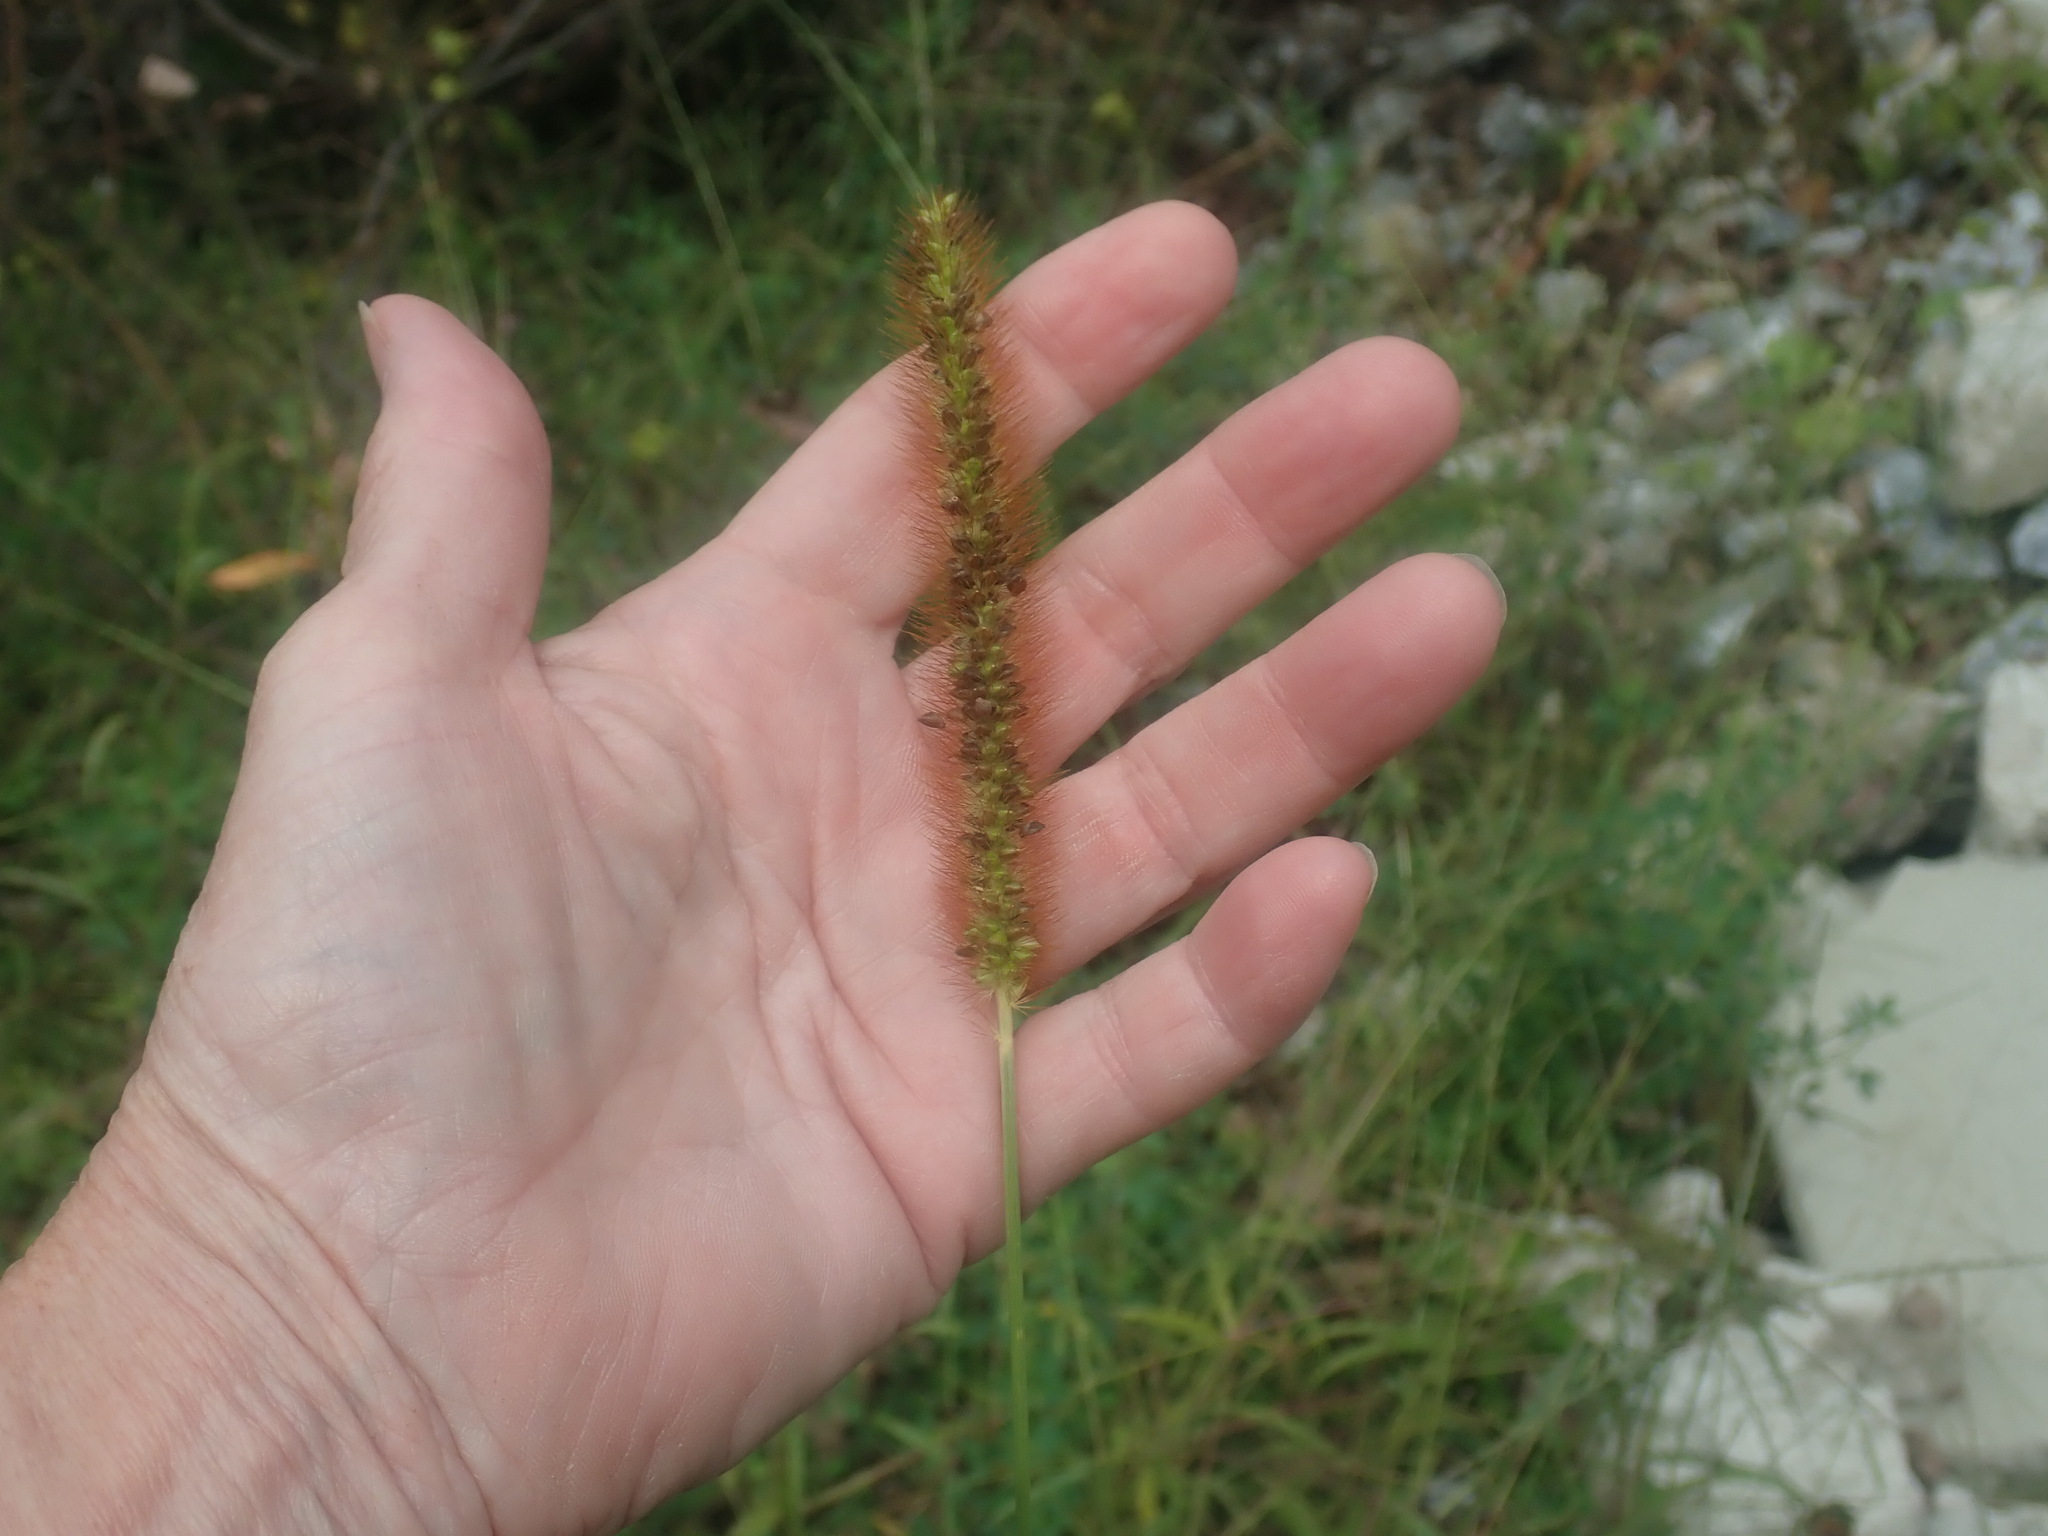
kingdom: Plantae
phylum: Tracheophyta
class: Liliopsida
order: Poales
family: Poaceae
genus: Setaria
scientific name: Setaria pumila
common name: Yellow bristle-grass
